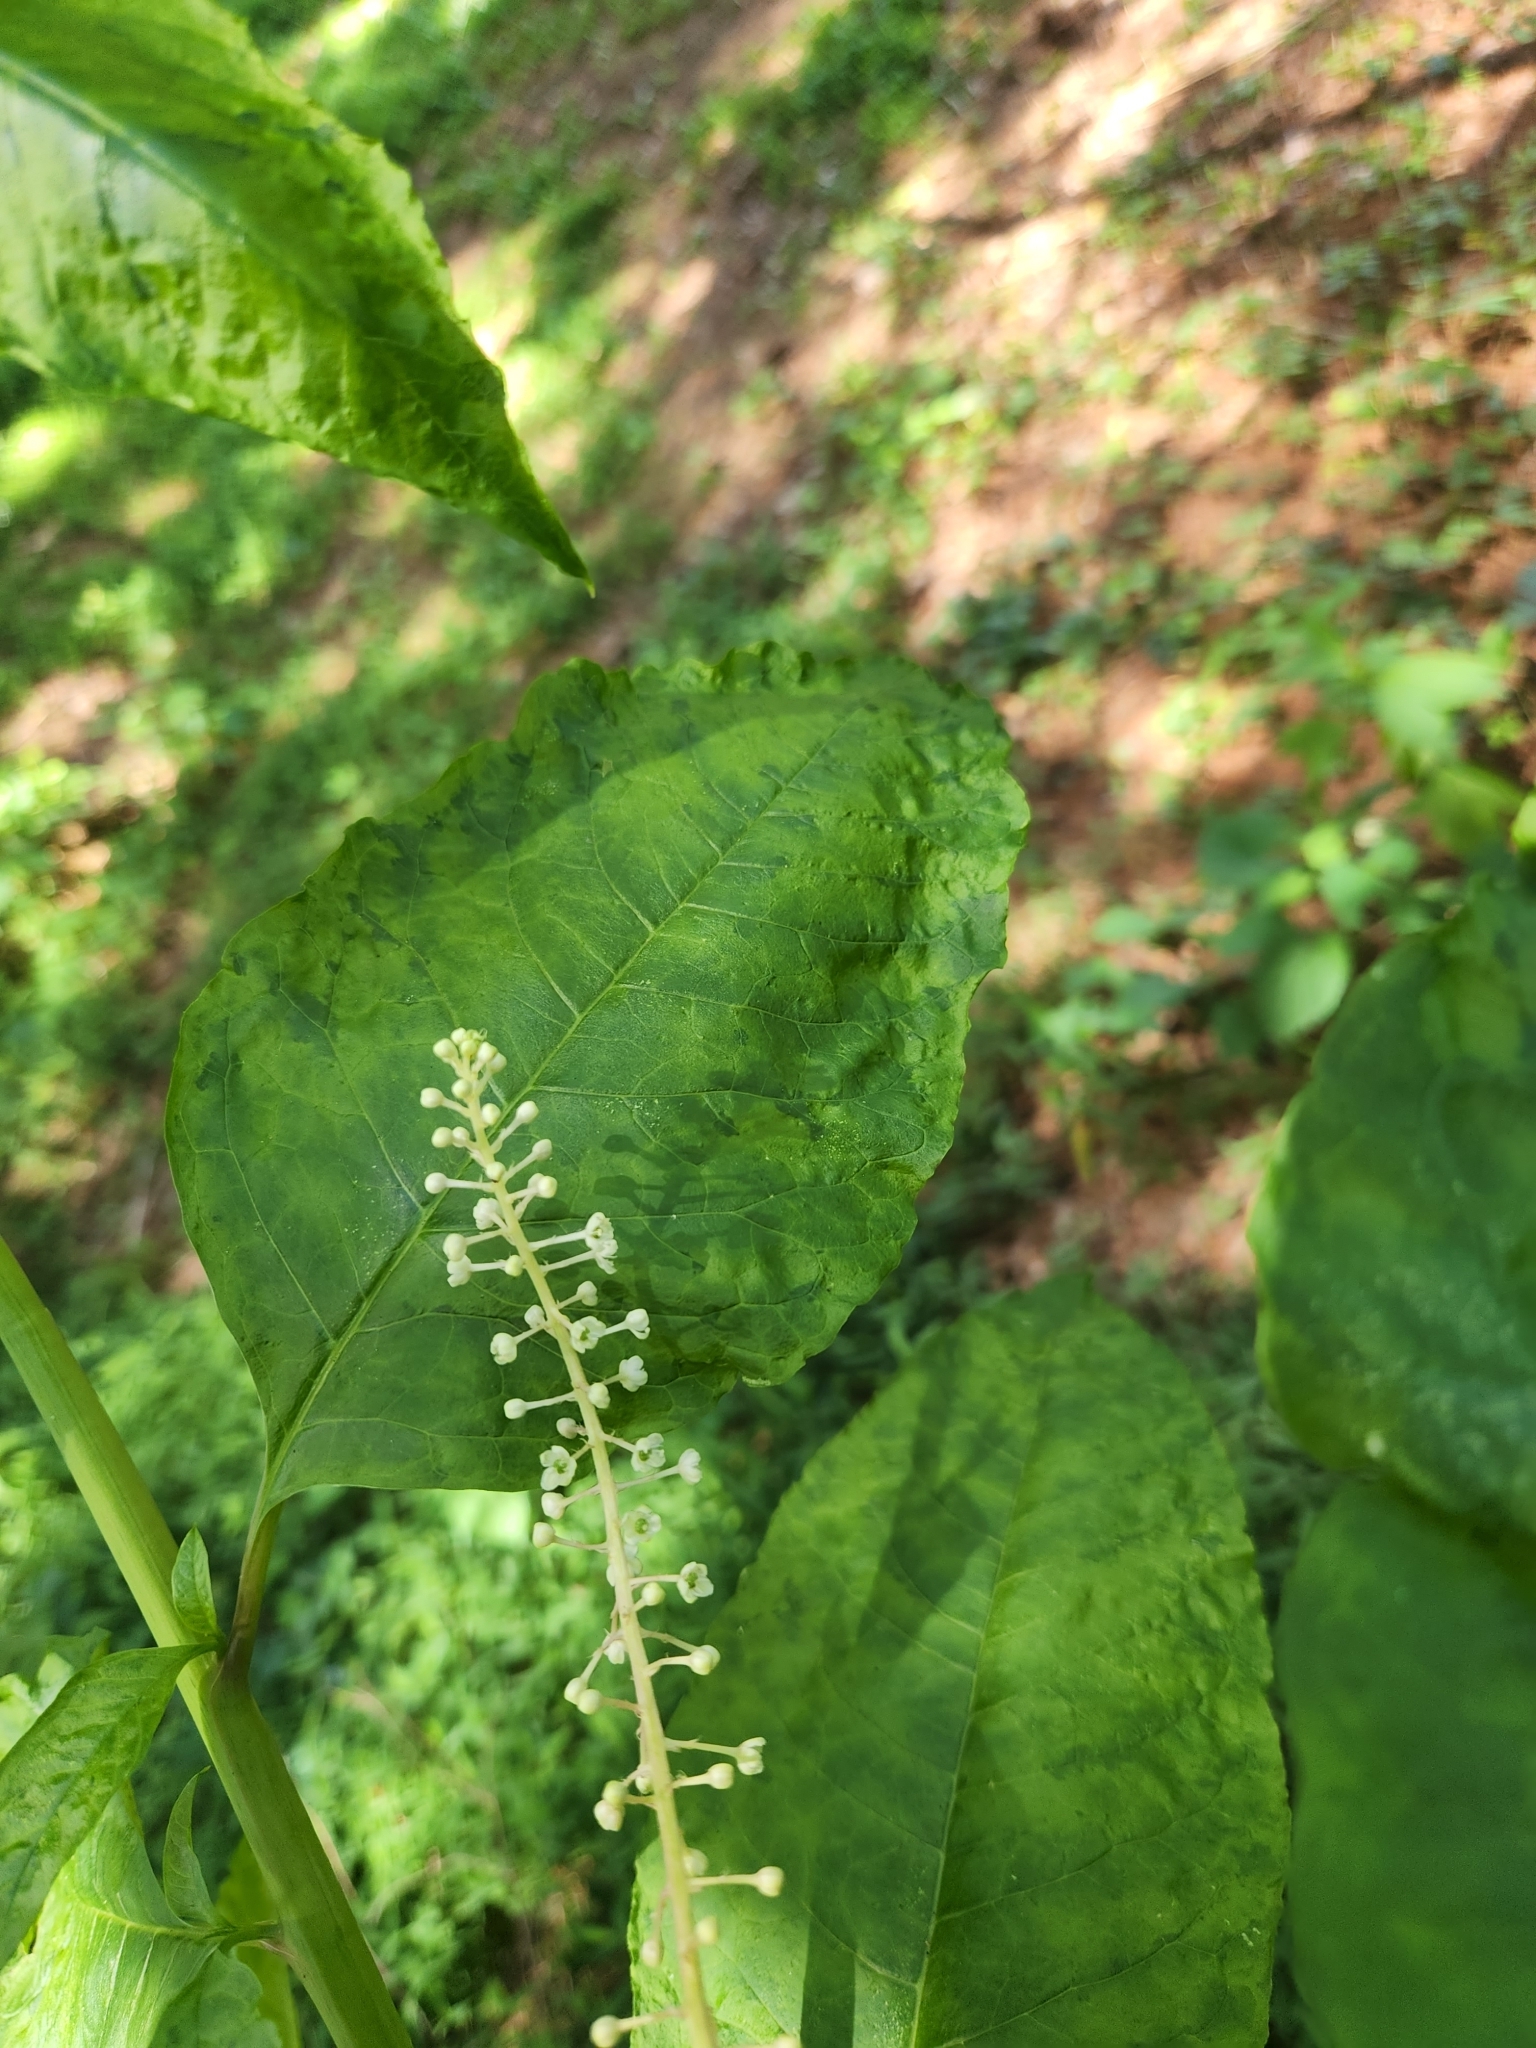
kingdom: Plantae
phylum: Tracheophyta
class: Magnoliopsida
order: Caryophyllales
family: Phytolaccaceae
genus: Phytolacca
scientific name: Phytolacca americana
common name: American pokeweed
